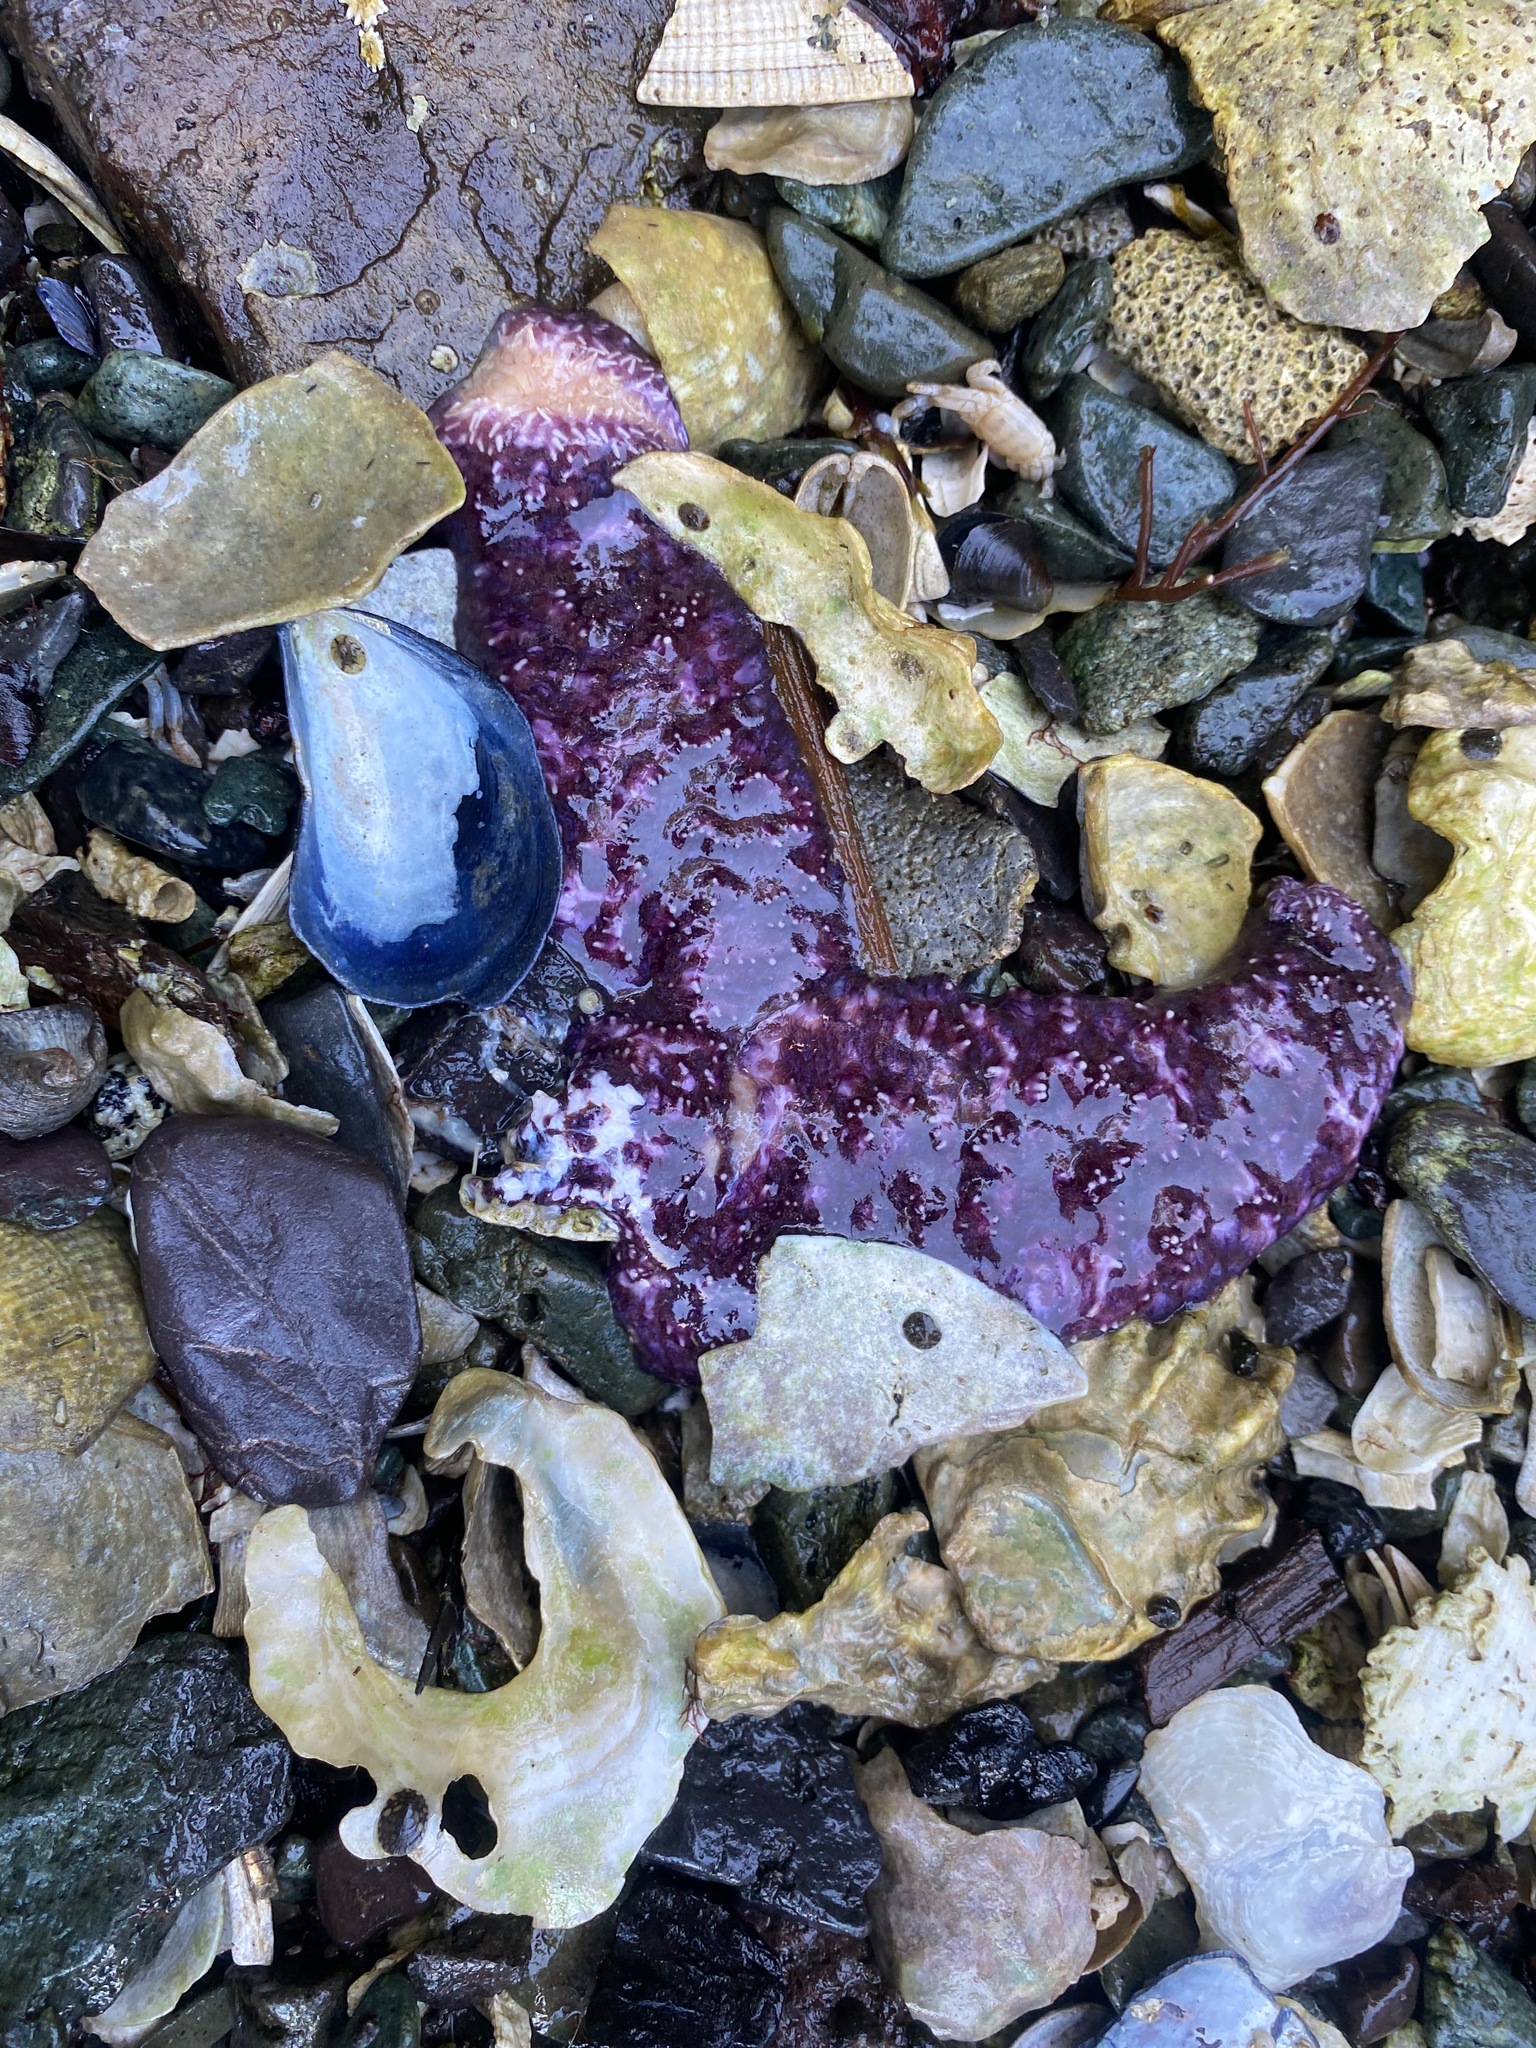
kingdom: Animalia
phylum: Echinodermata
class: Asteroidea
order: Forcipulatida
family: Asteriidae
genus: Pisaster
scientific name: Pisaster ochraceus
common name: Ochre stars
